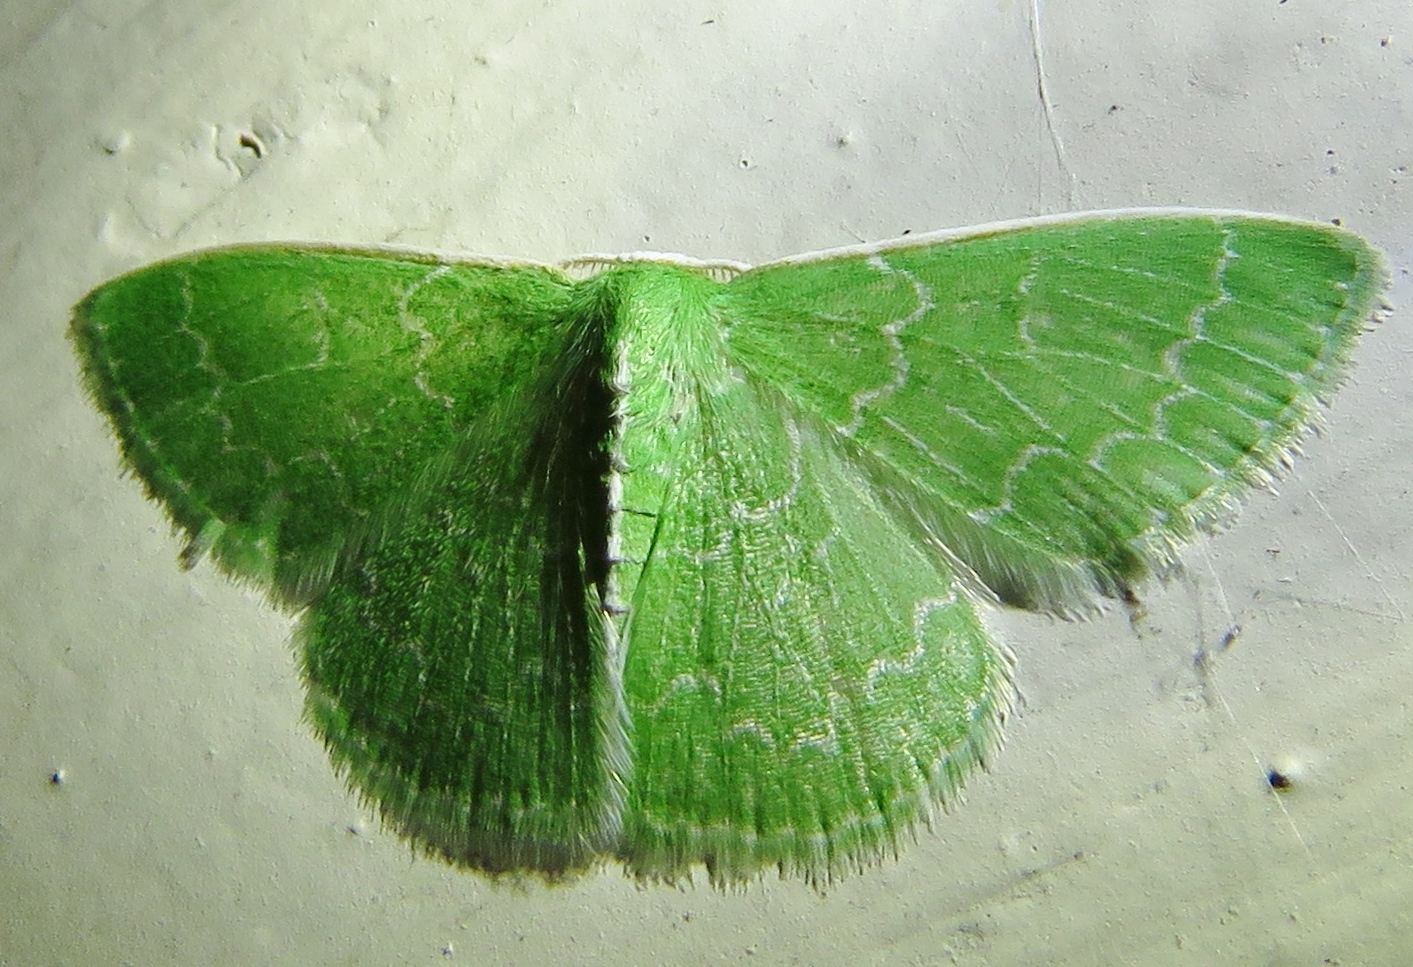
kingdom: Animalia
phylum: Arthropoda
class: Insecta
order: Lepidoptera
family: Geometridae
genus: Synchlora
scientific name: Synchlora frondaria
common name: Southern emerald
